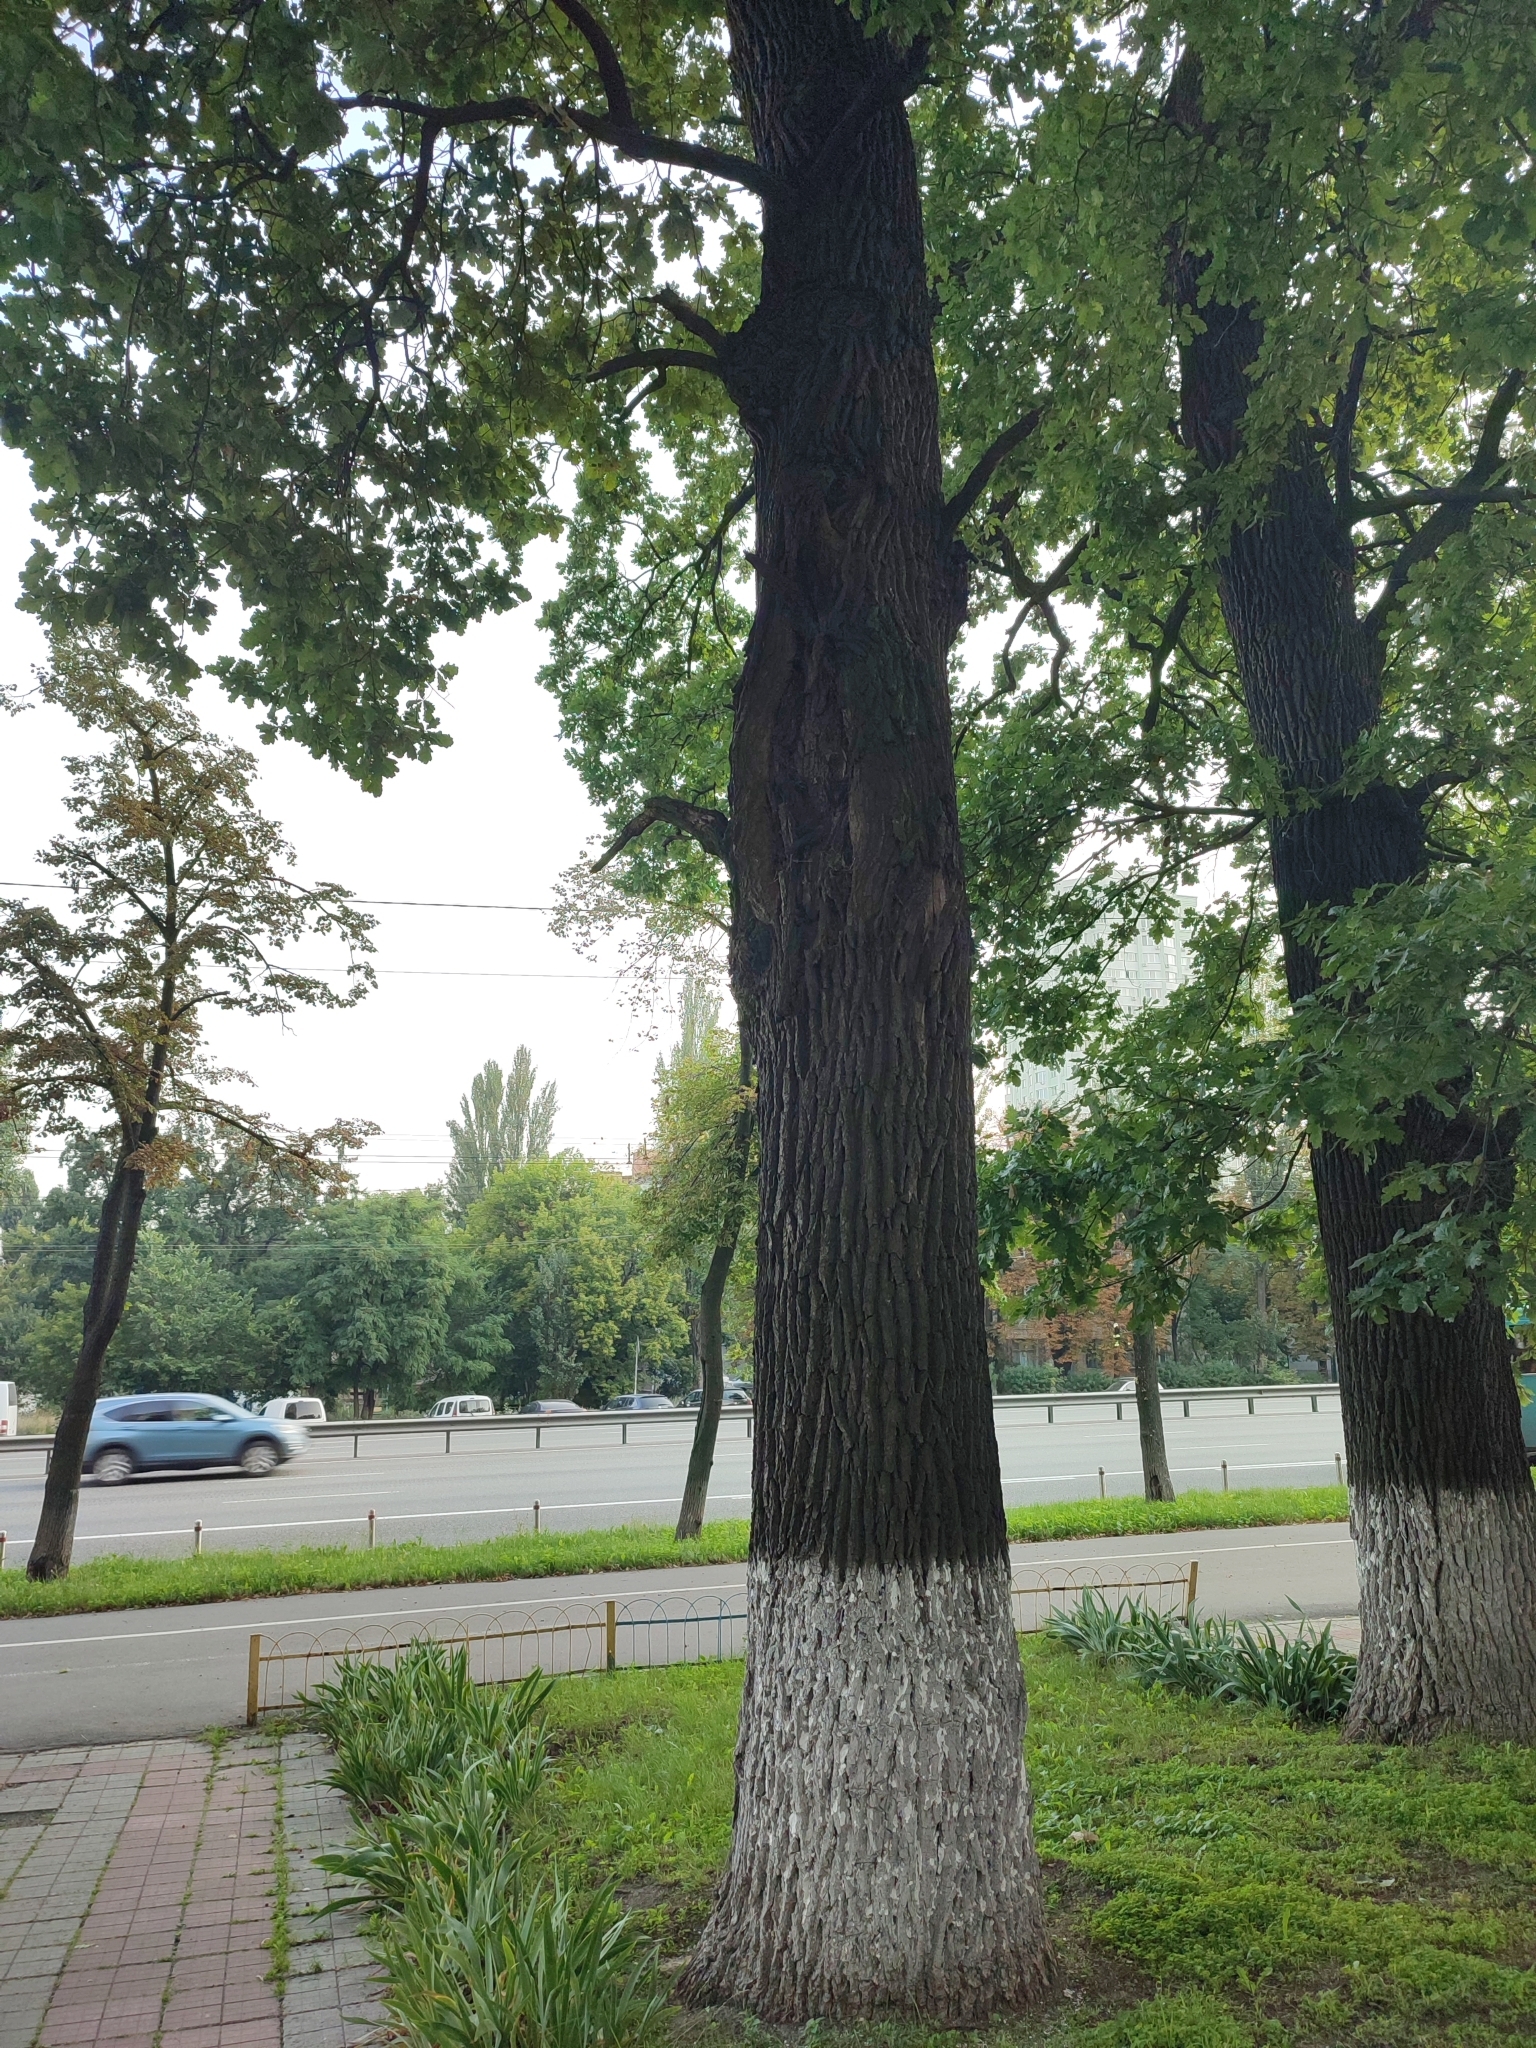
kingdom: Plantae
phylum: Tracheophyta
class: Magnoliopsida
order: Fagales
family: Fagaceae
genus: Quercus
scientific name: Quercus robur
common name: Pedunculate oak
